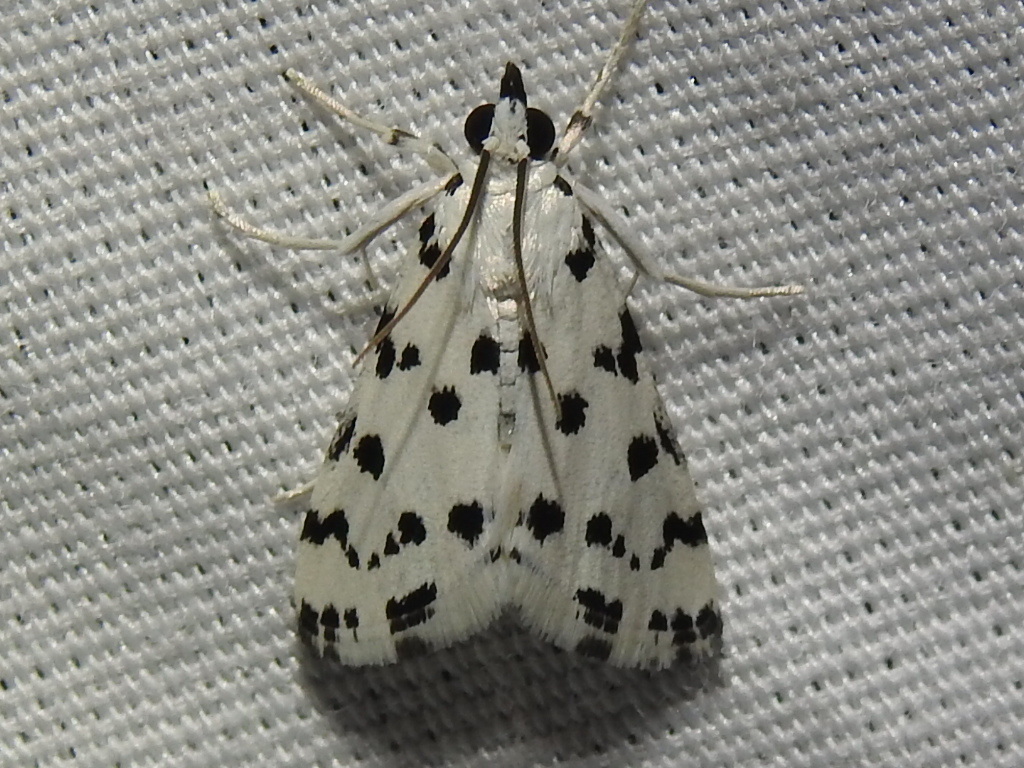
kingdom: Animalia
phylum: Arthropoda
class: Insecta
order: Lepidoptera
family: Crambidae
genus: Eustixia
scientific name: Eustixia pupula
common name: American cabbage pearl
